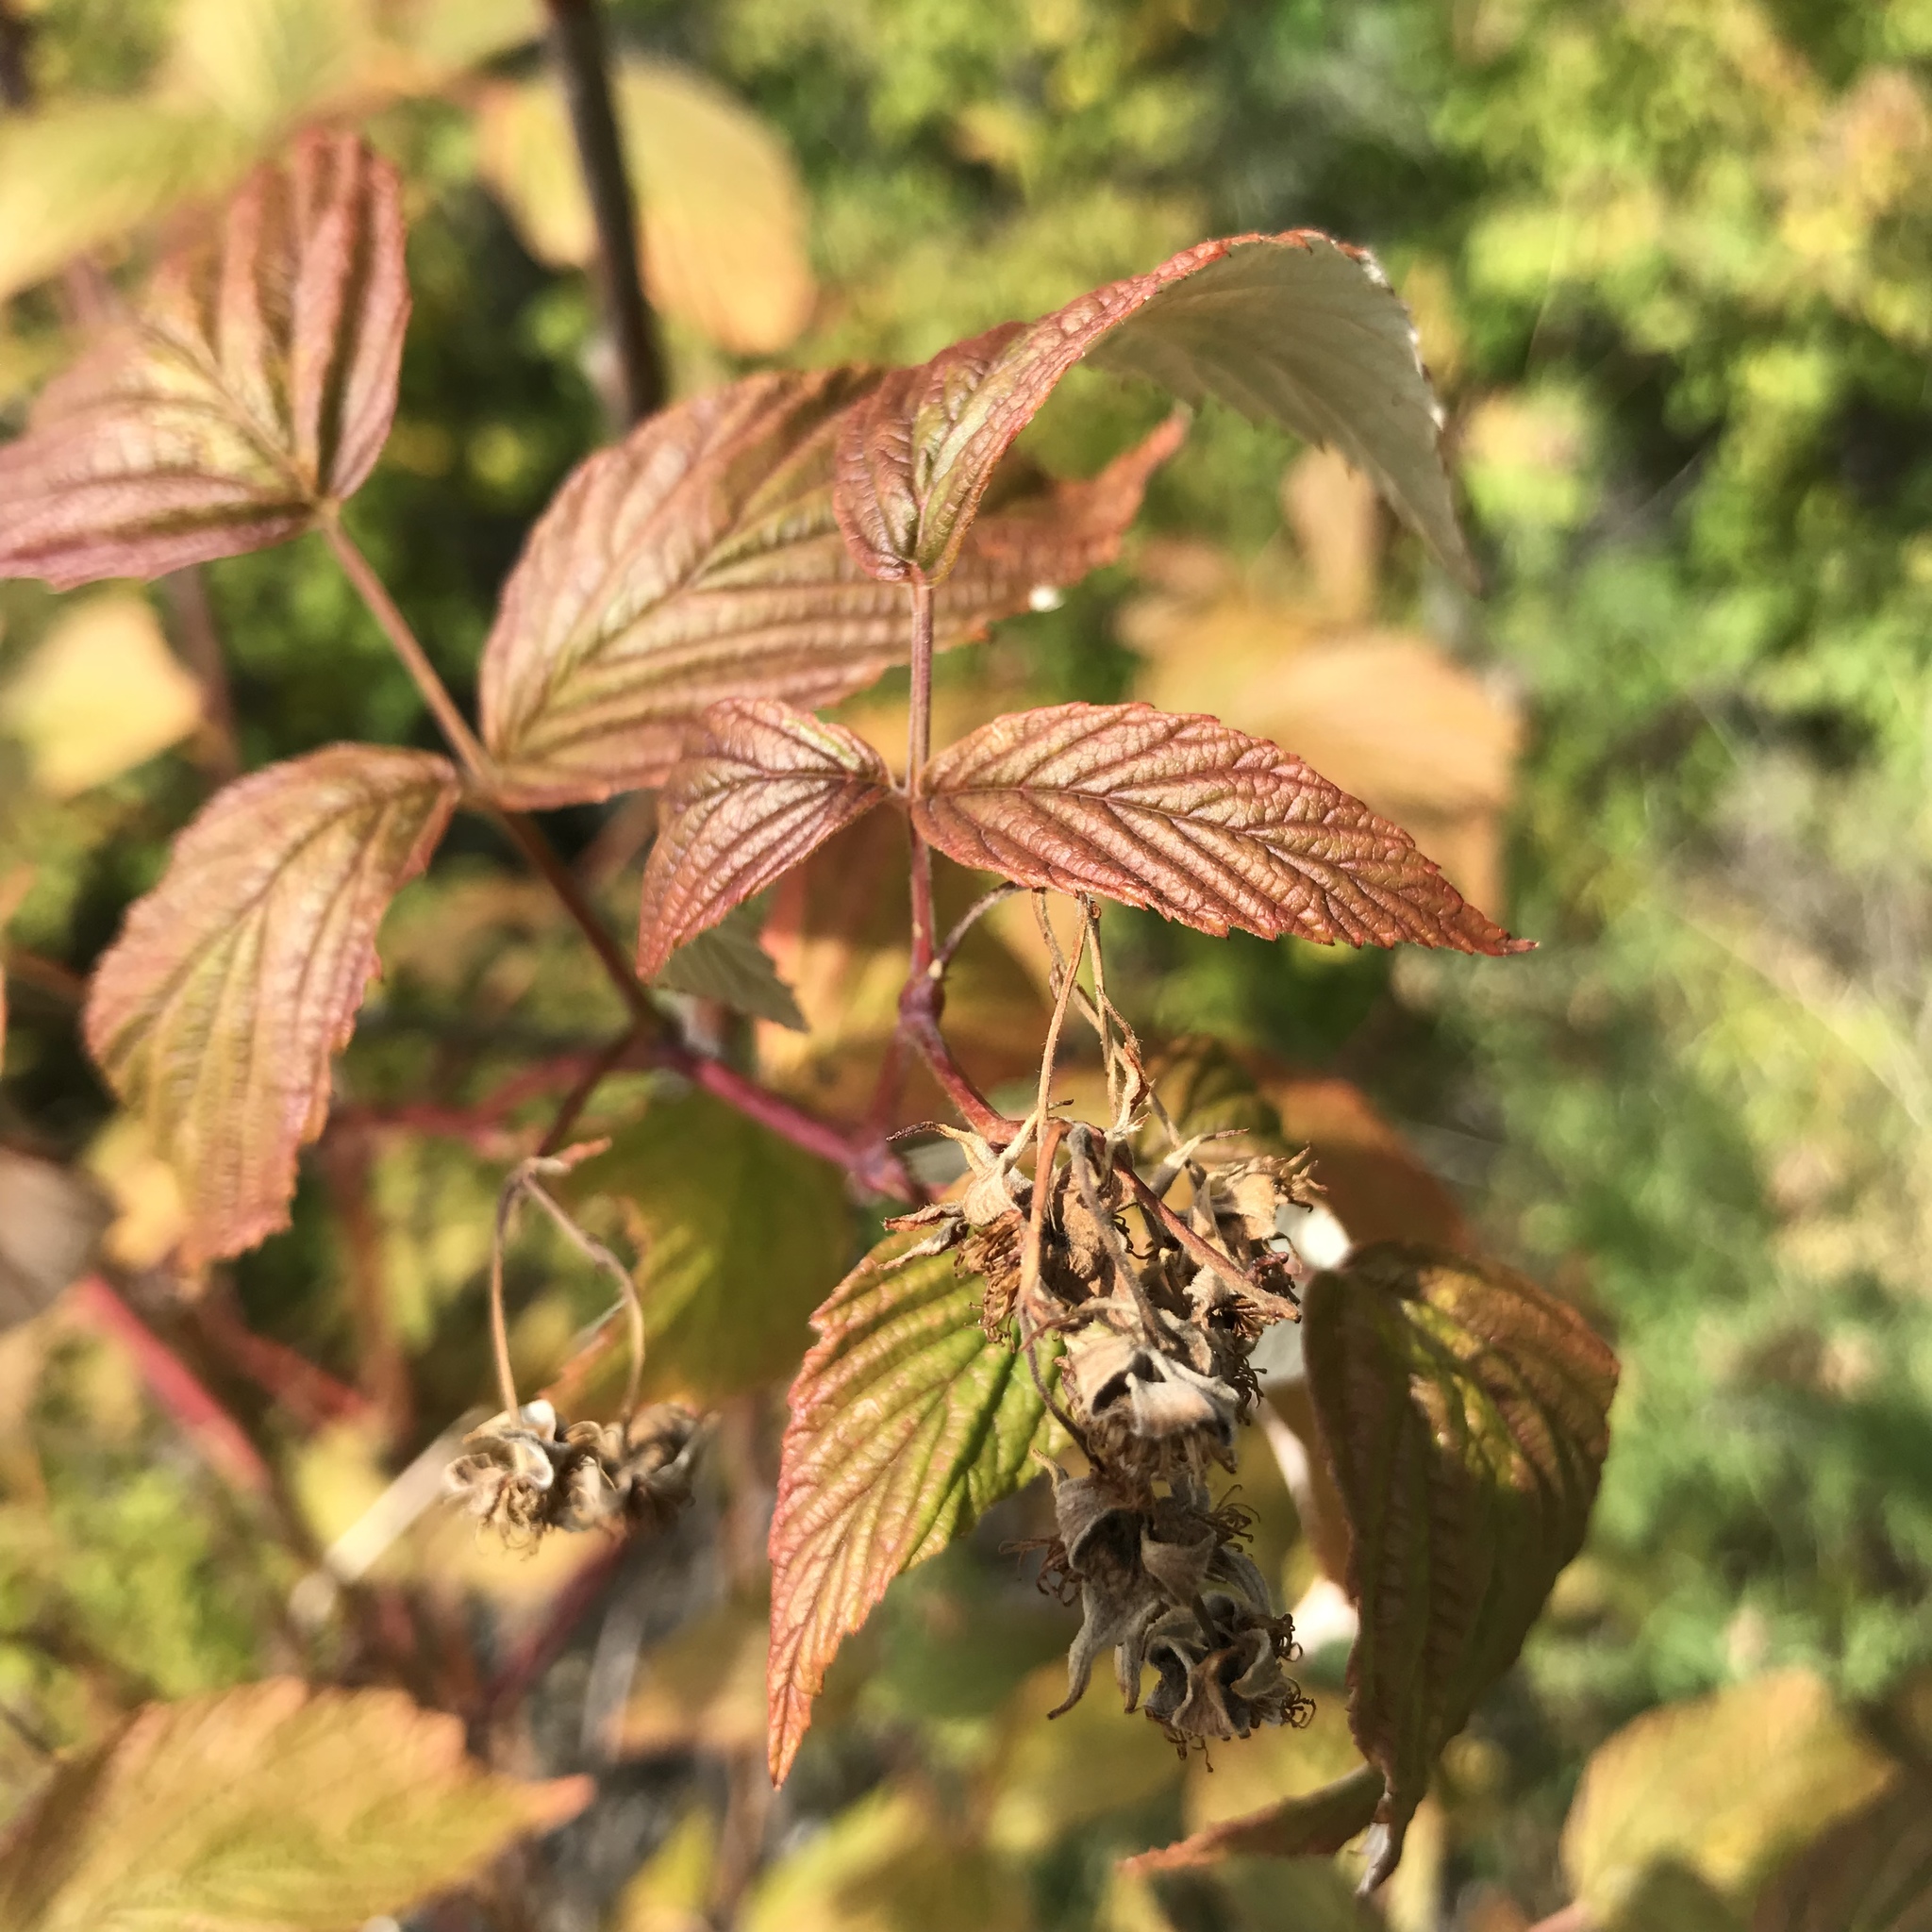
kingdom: Plantae
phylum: Tracheophyta
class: Magnoliopsida
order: Rosales
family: Rosaceae
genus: Rubus
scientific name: Rubus sachalinensis
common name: Red raspberry
